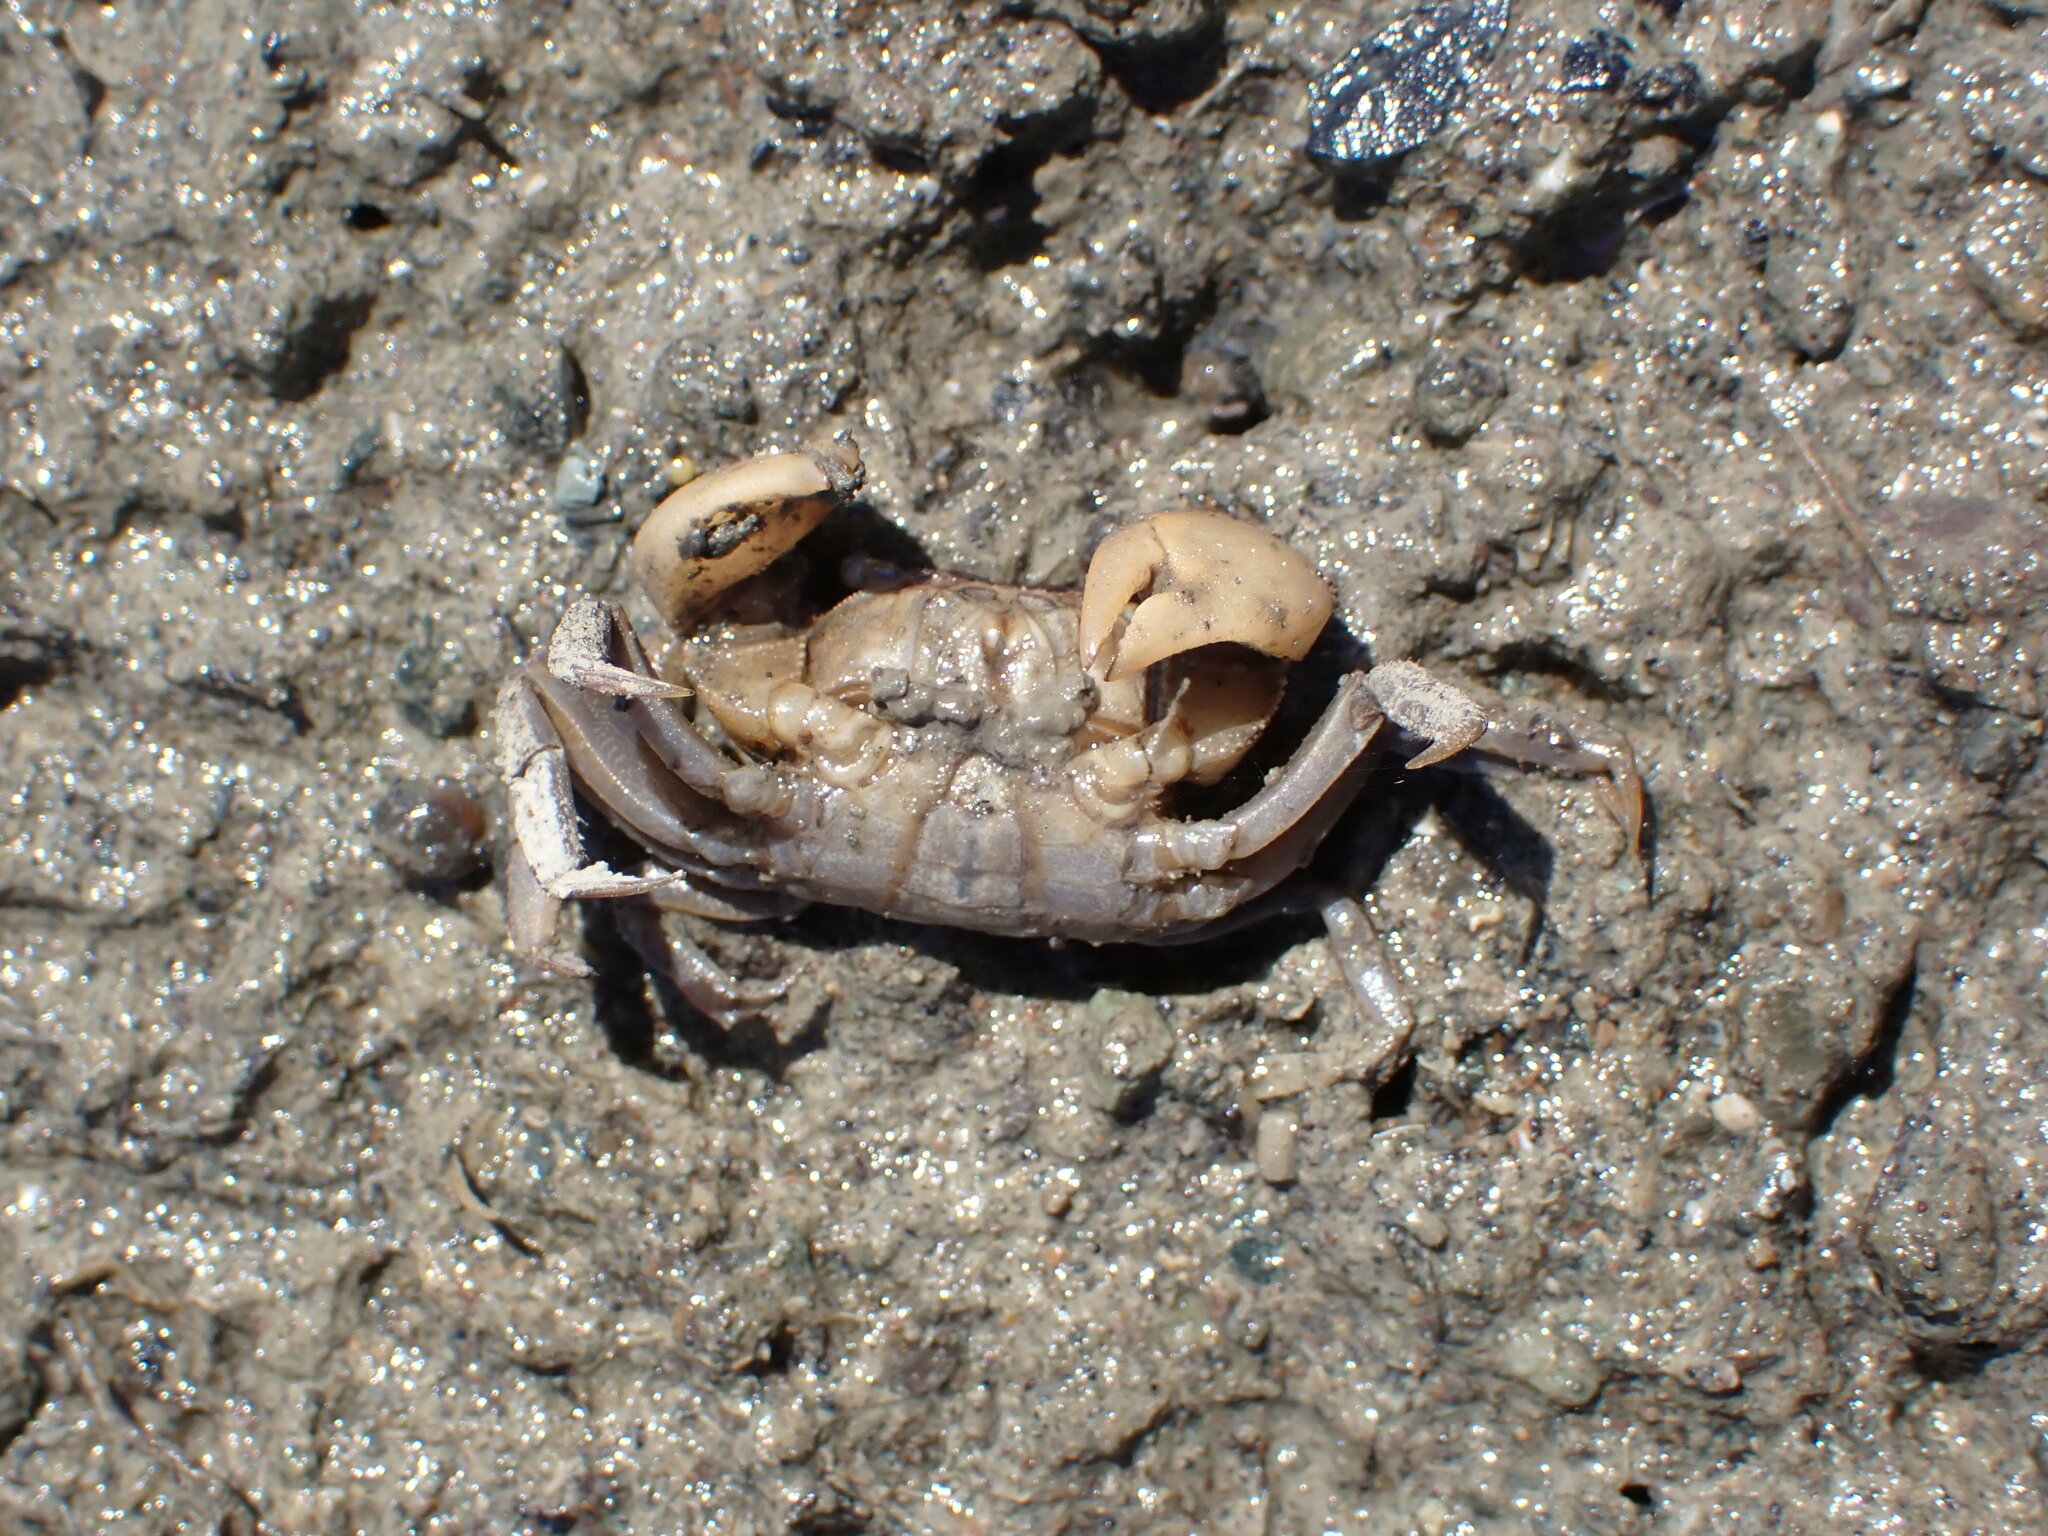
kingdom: Animalia
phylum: Arthropoda
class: Malacostraca
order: Decapoda
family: Varunidae
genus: Austrohelice
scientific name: Austrohelice crassa
